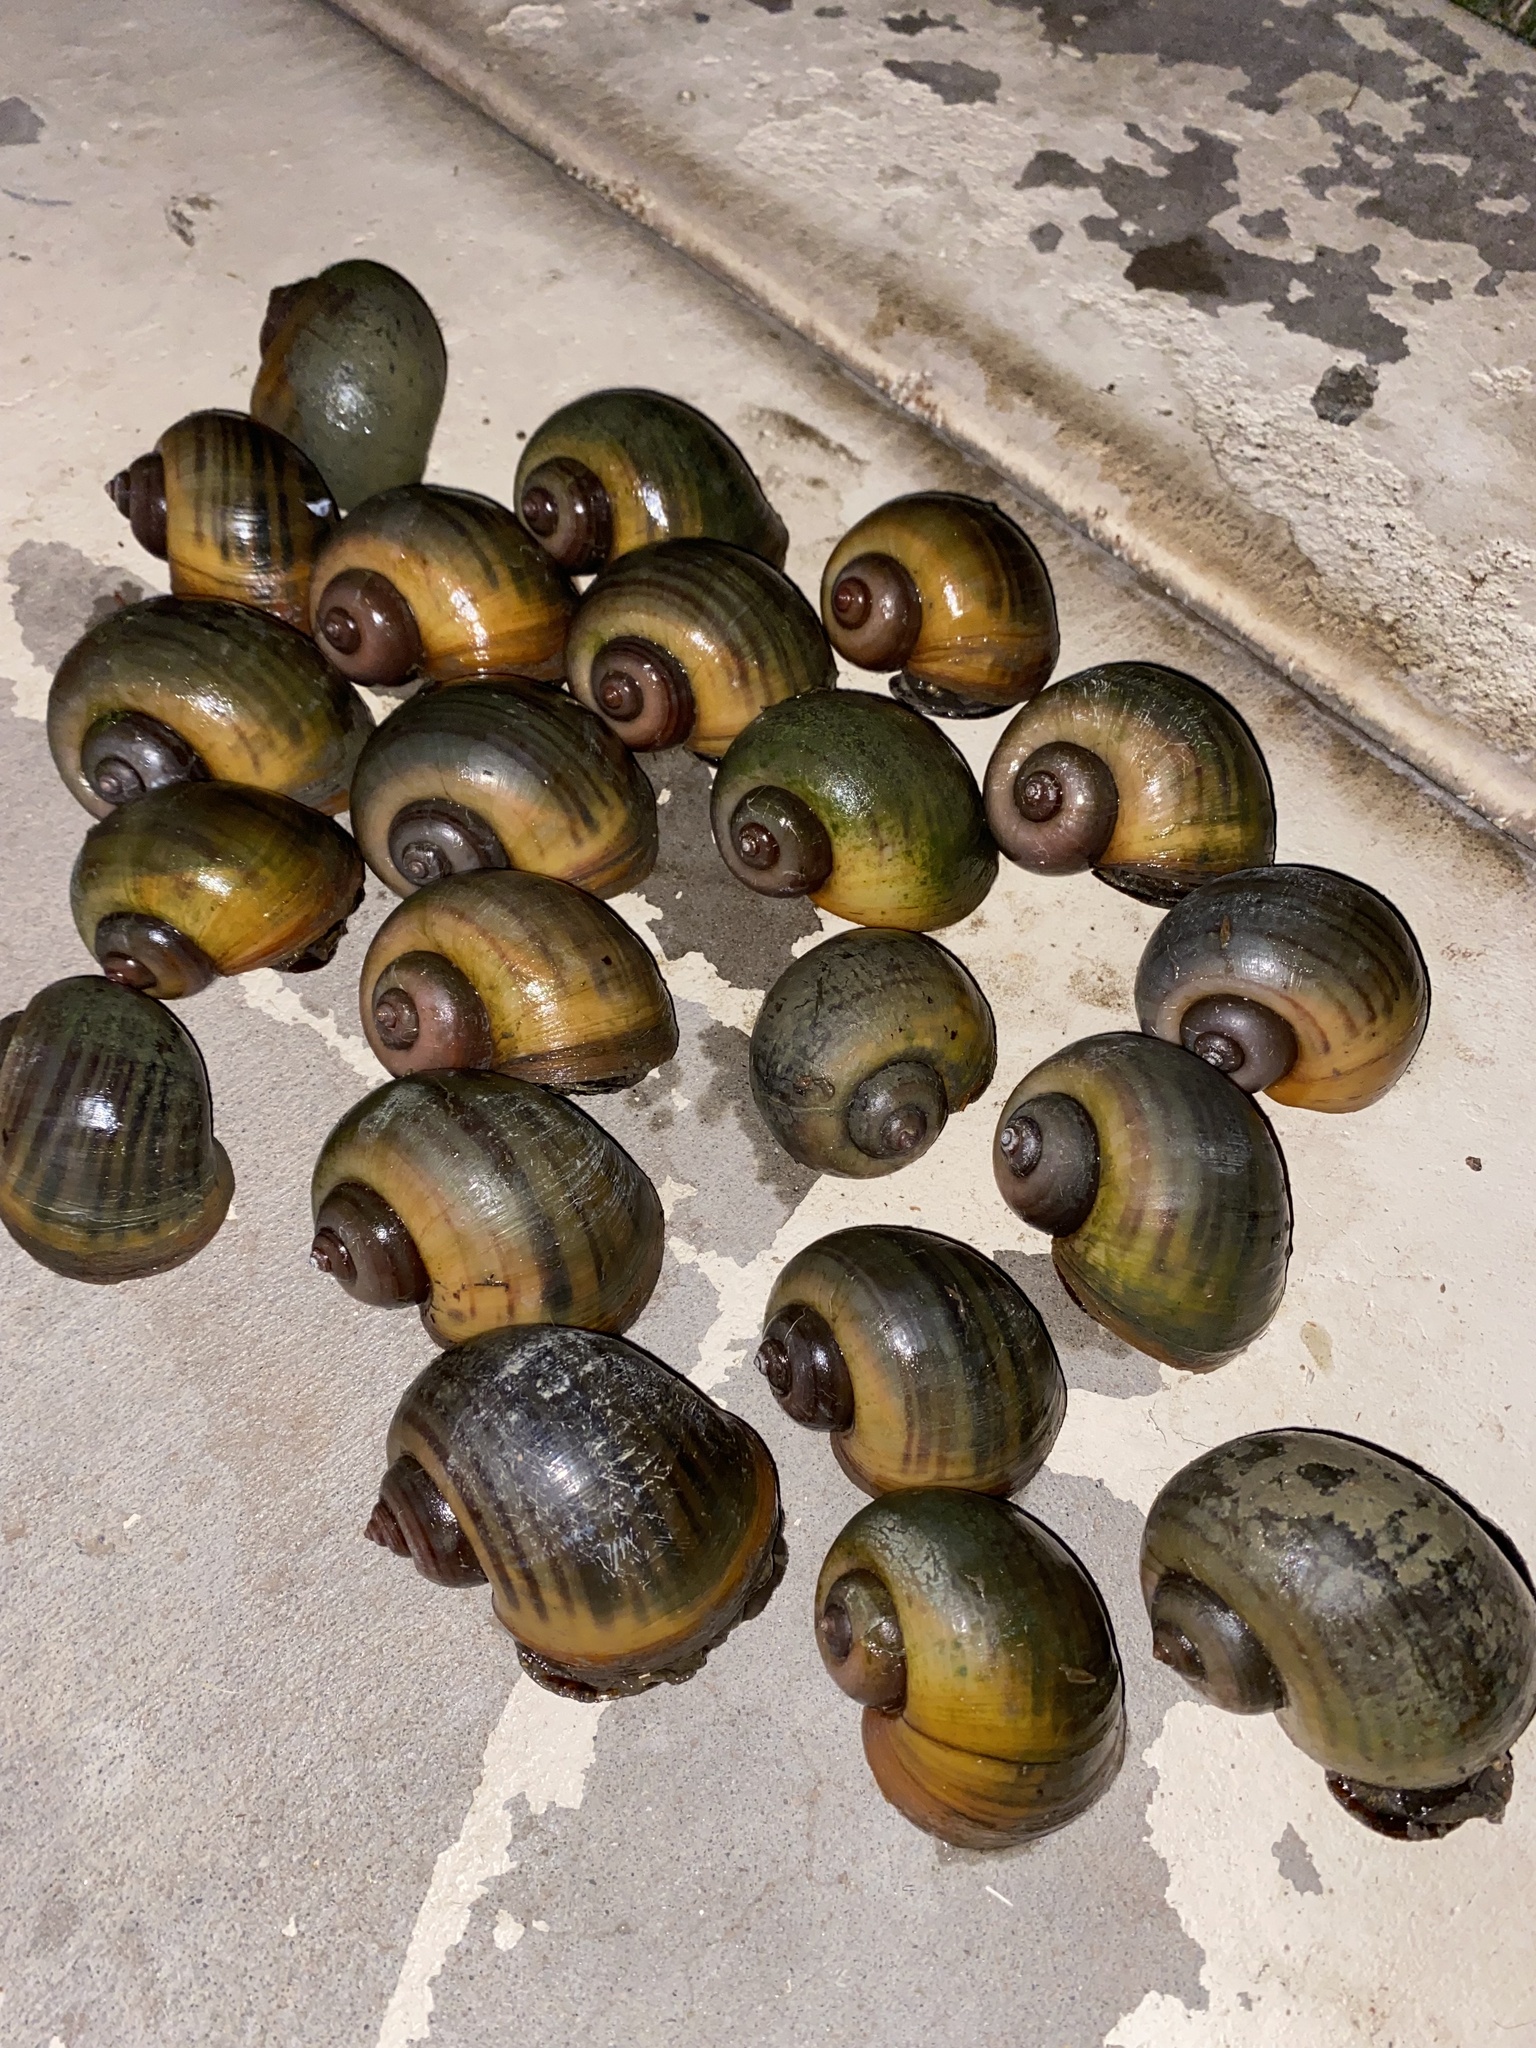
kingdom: Animalia
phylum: Mollusca
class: Gastropoda
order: Architaenioglossa
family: Ampullariidae
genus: Pomacea
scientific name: Pomacea maculata
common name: Giant applesnail
